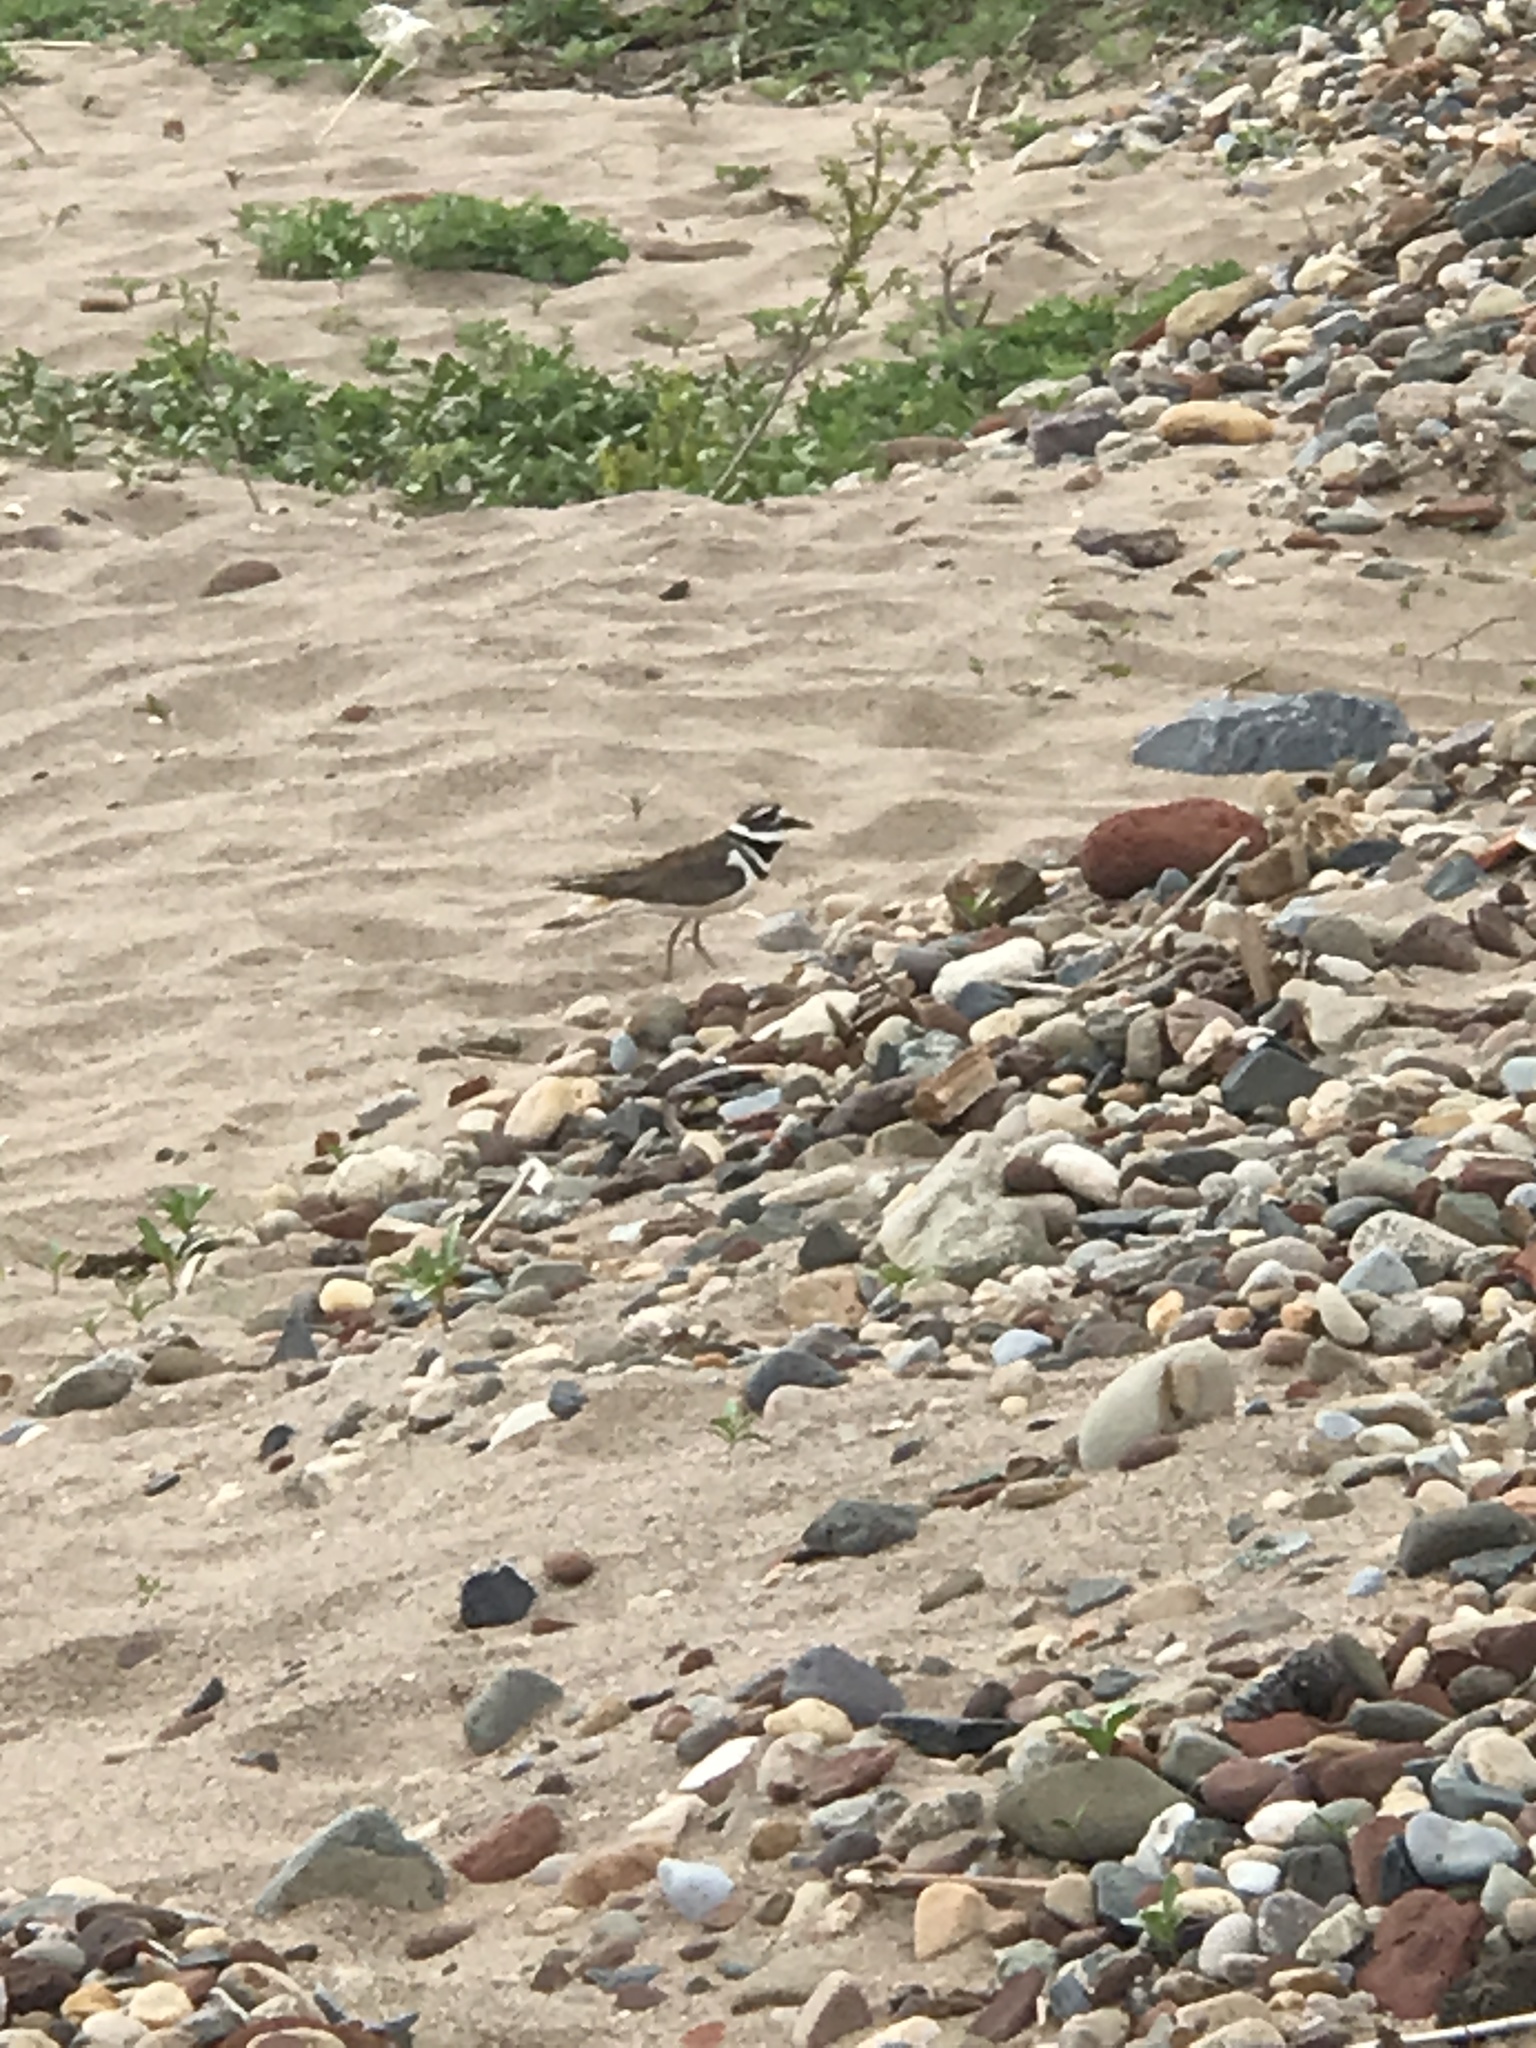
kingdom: Animalia
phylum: Chordata
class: Aves
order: Charadriiformes
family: Charadriidae
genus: Charadrius
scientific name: Charadrius vociferus
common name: Killdeer
